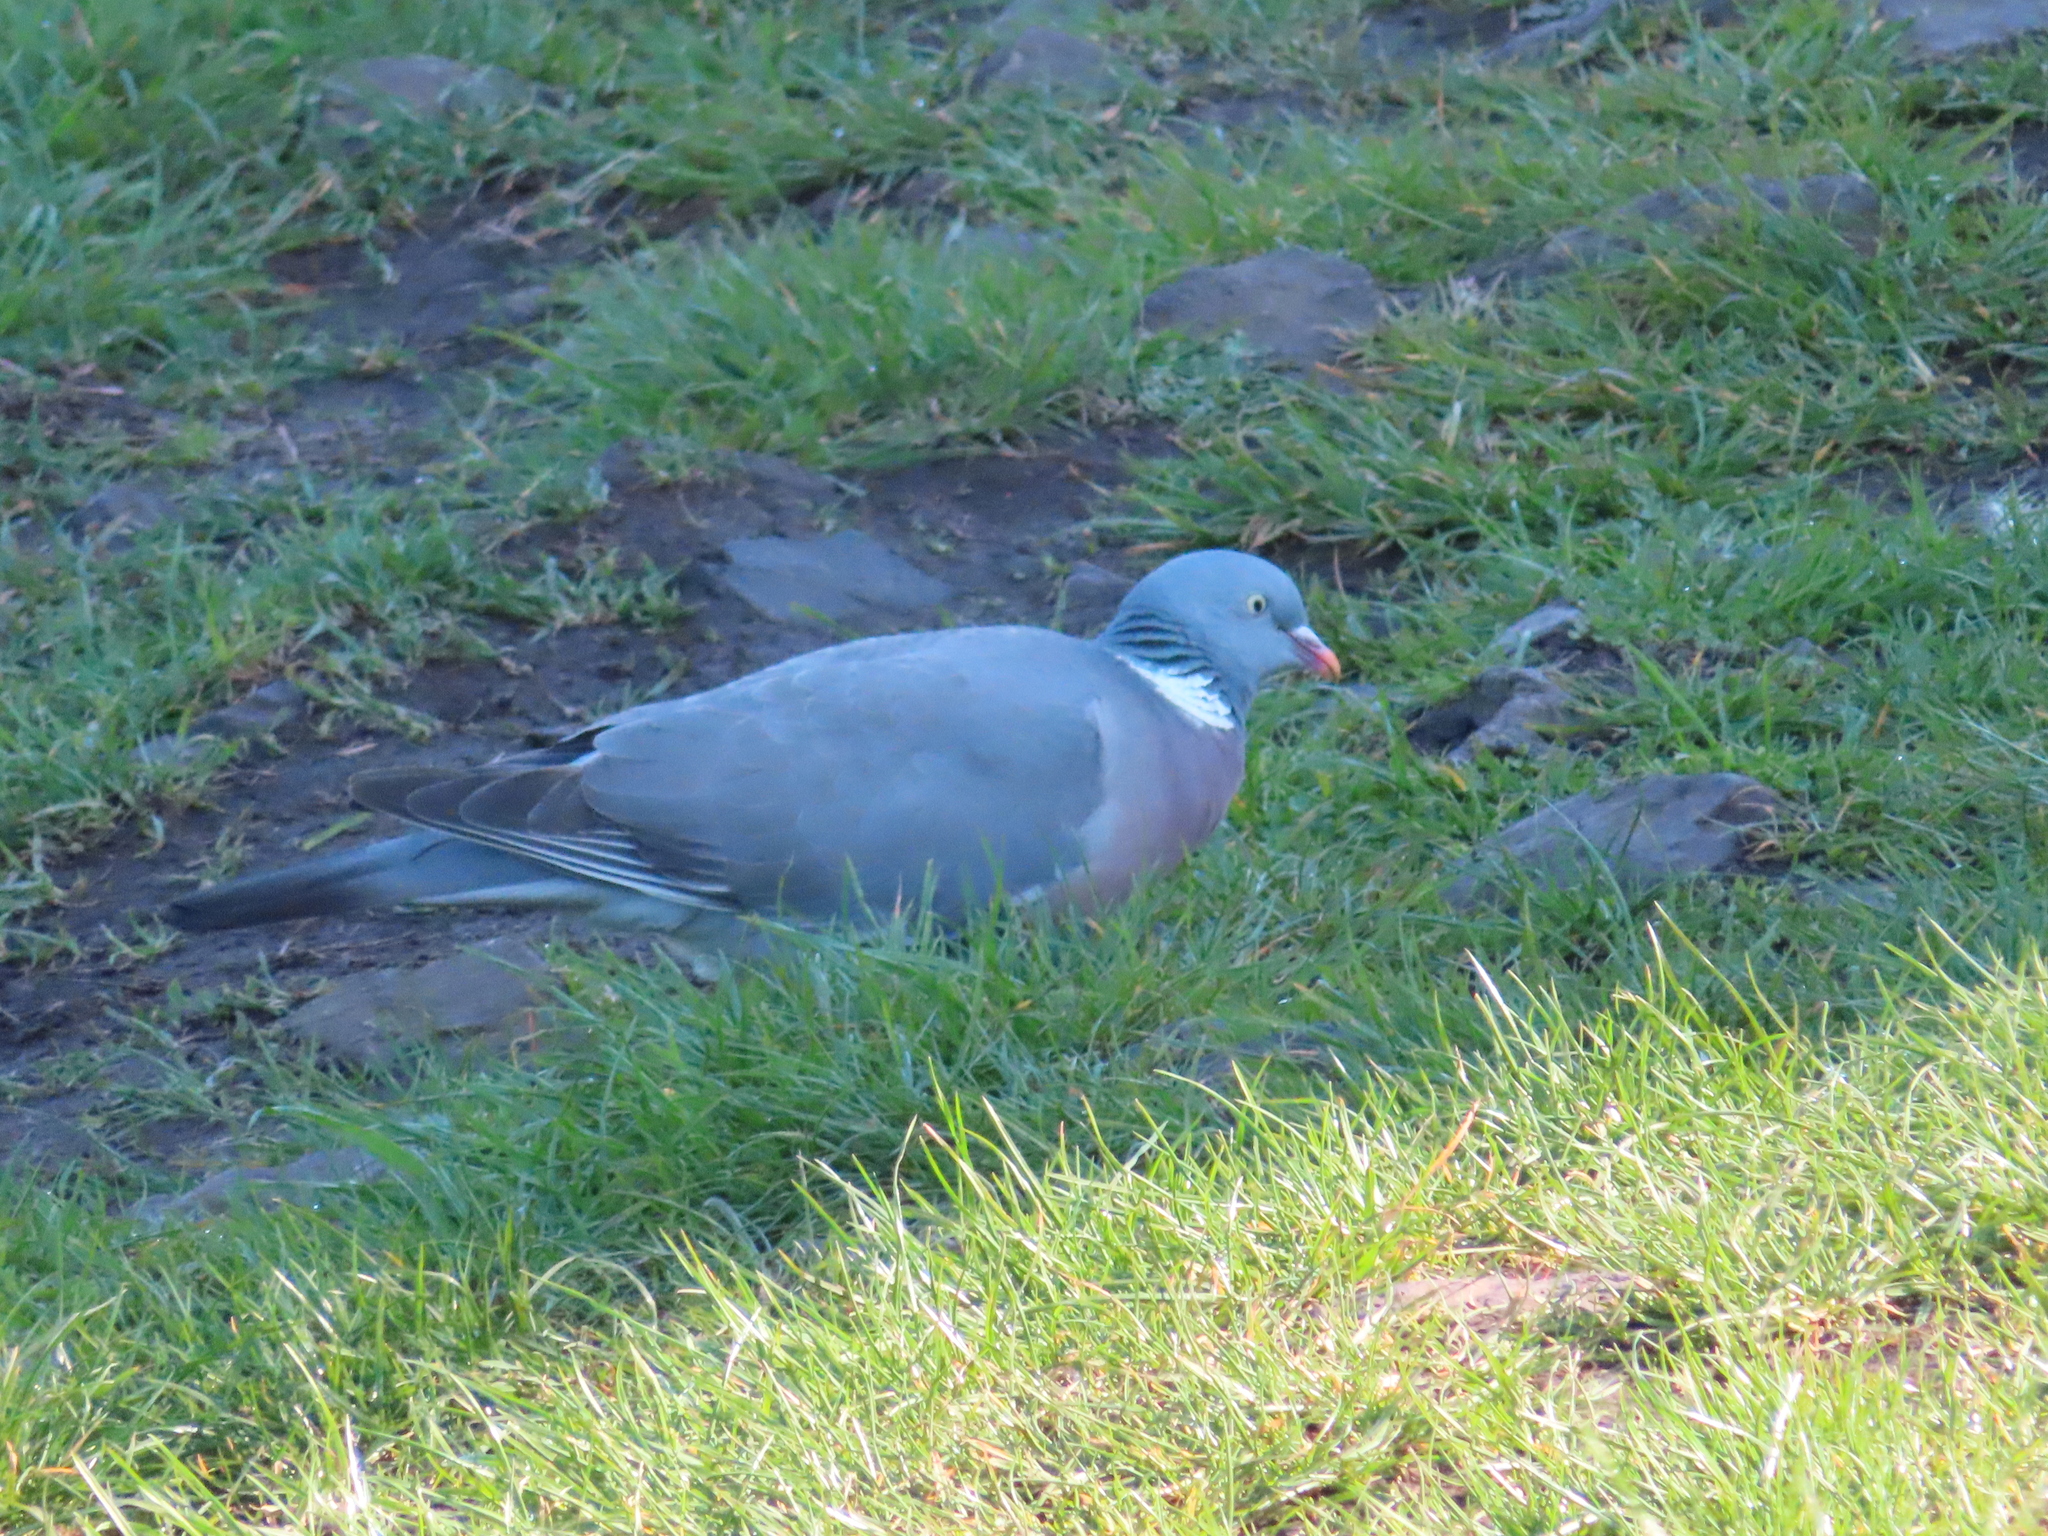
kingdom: Animalia
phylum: Chordata
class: Aves
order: Columbiformes
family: Columbidae
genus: Columba
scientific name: Columba palumbus
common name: Common wood pigeon
